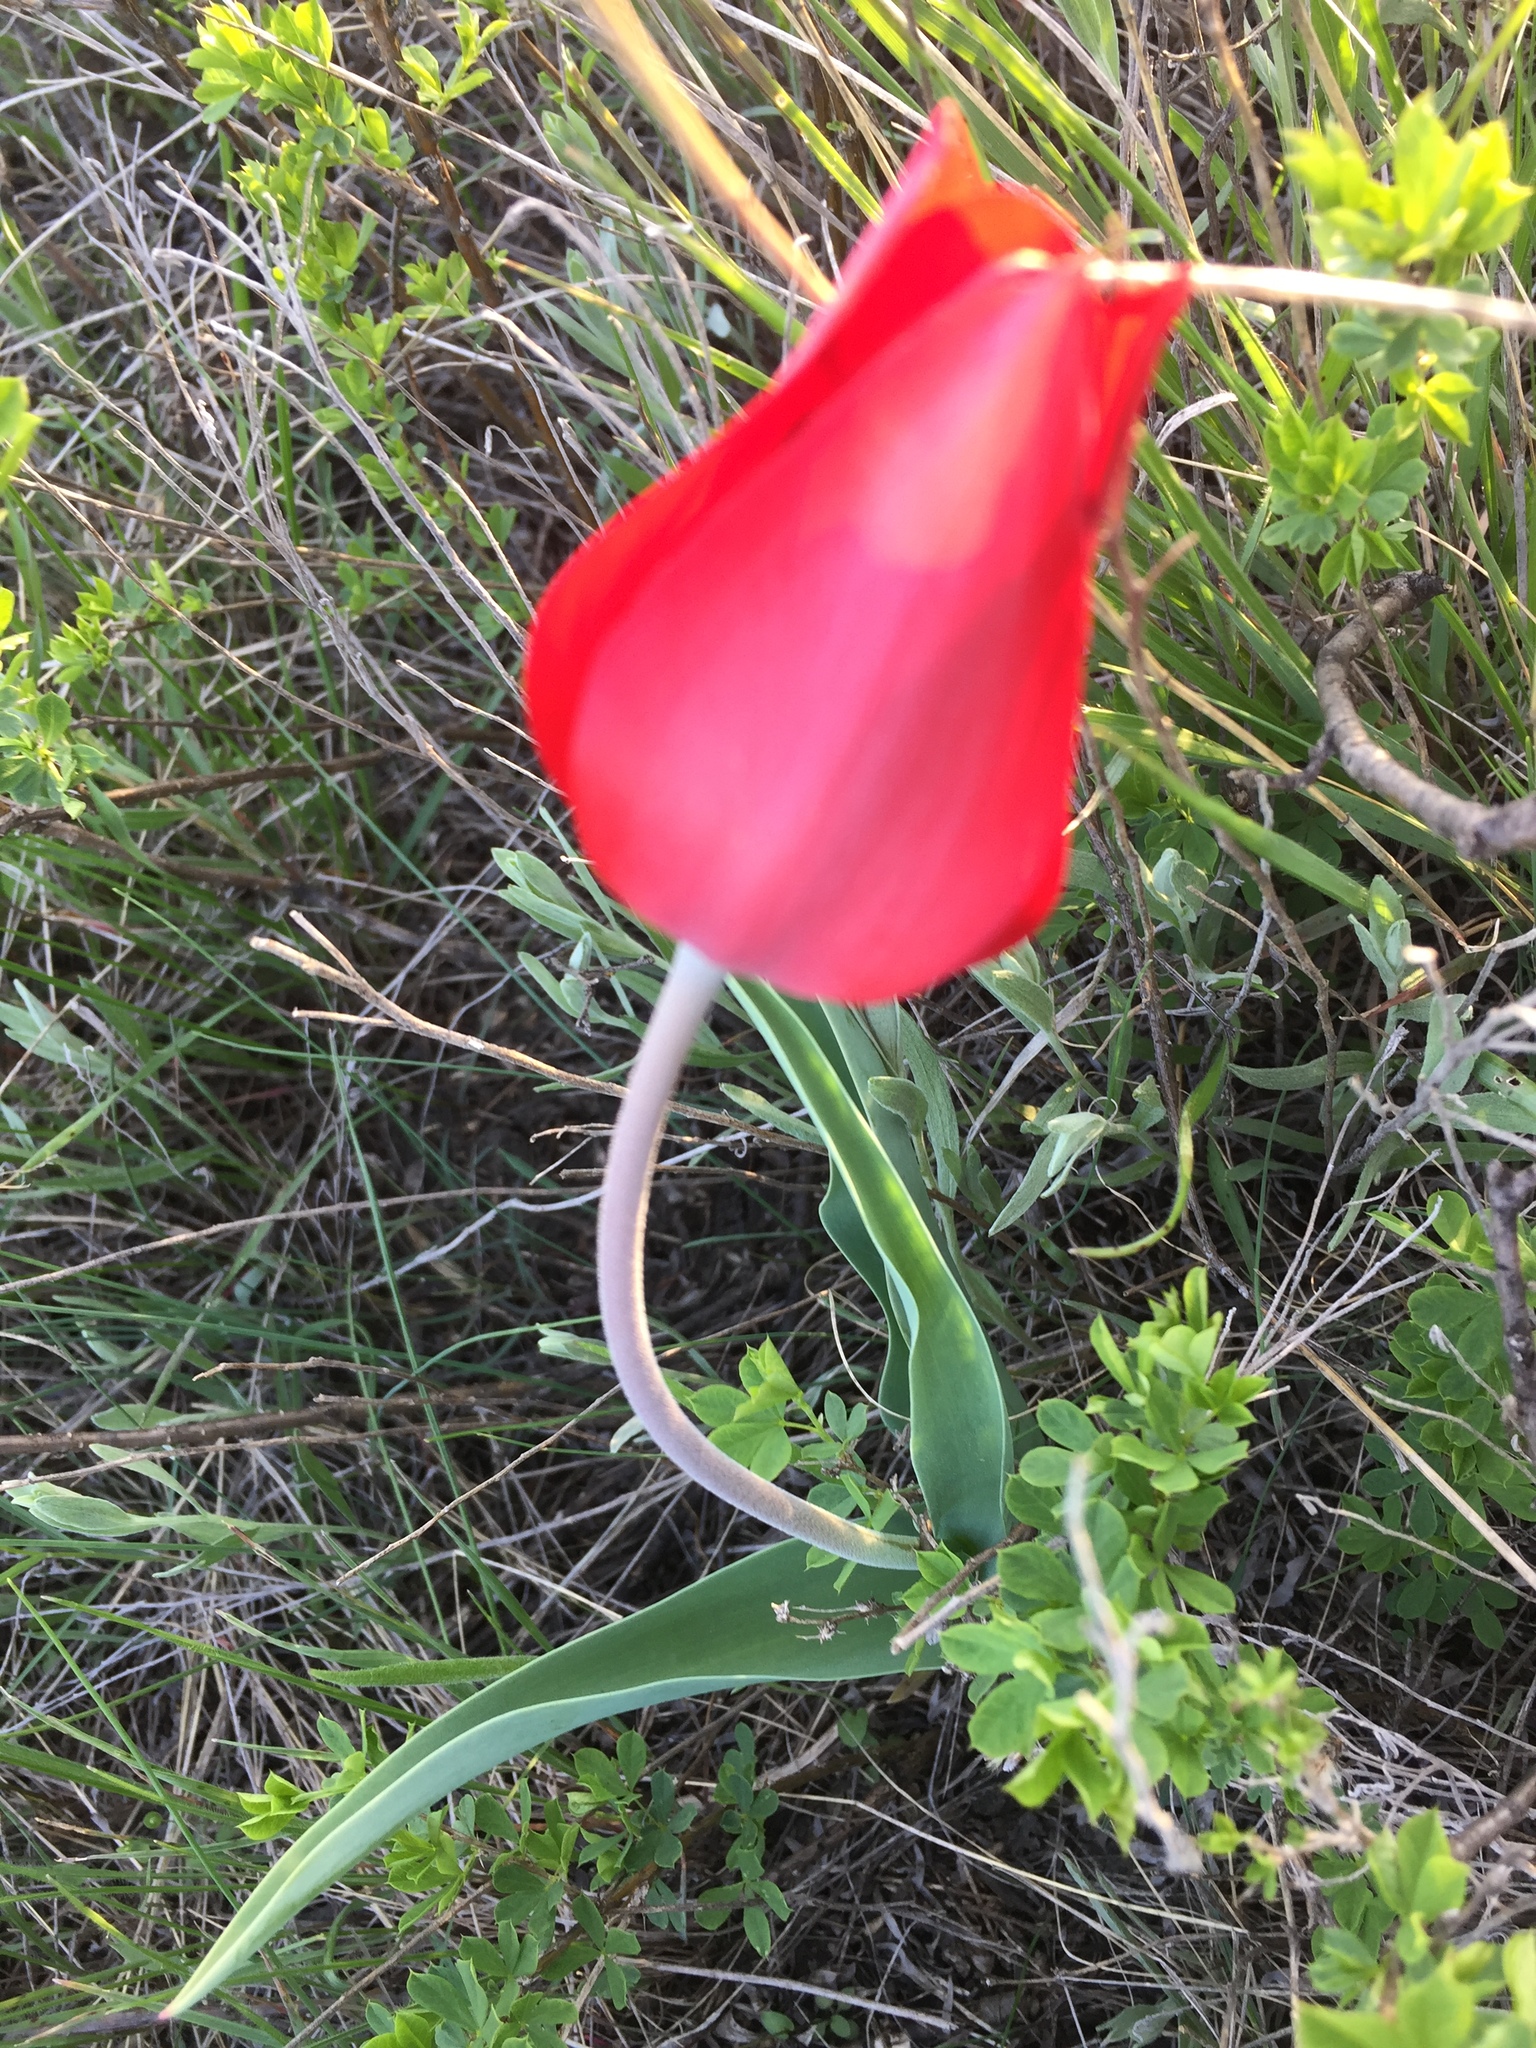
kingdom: Plantae
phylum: Tracheophyta
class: Liliopsida
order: Liliales
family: Liliaceae
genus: Tulipa
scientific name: Tulipa suaveolens
